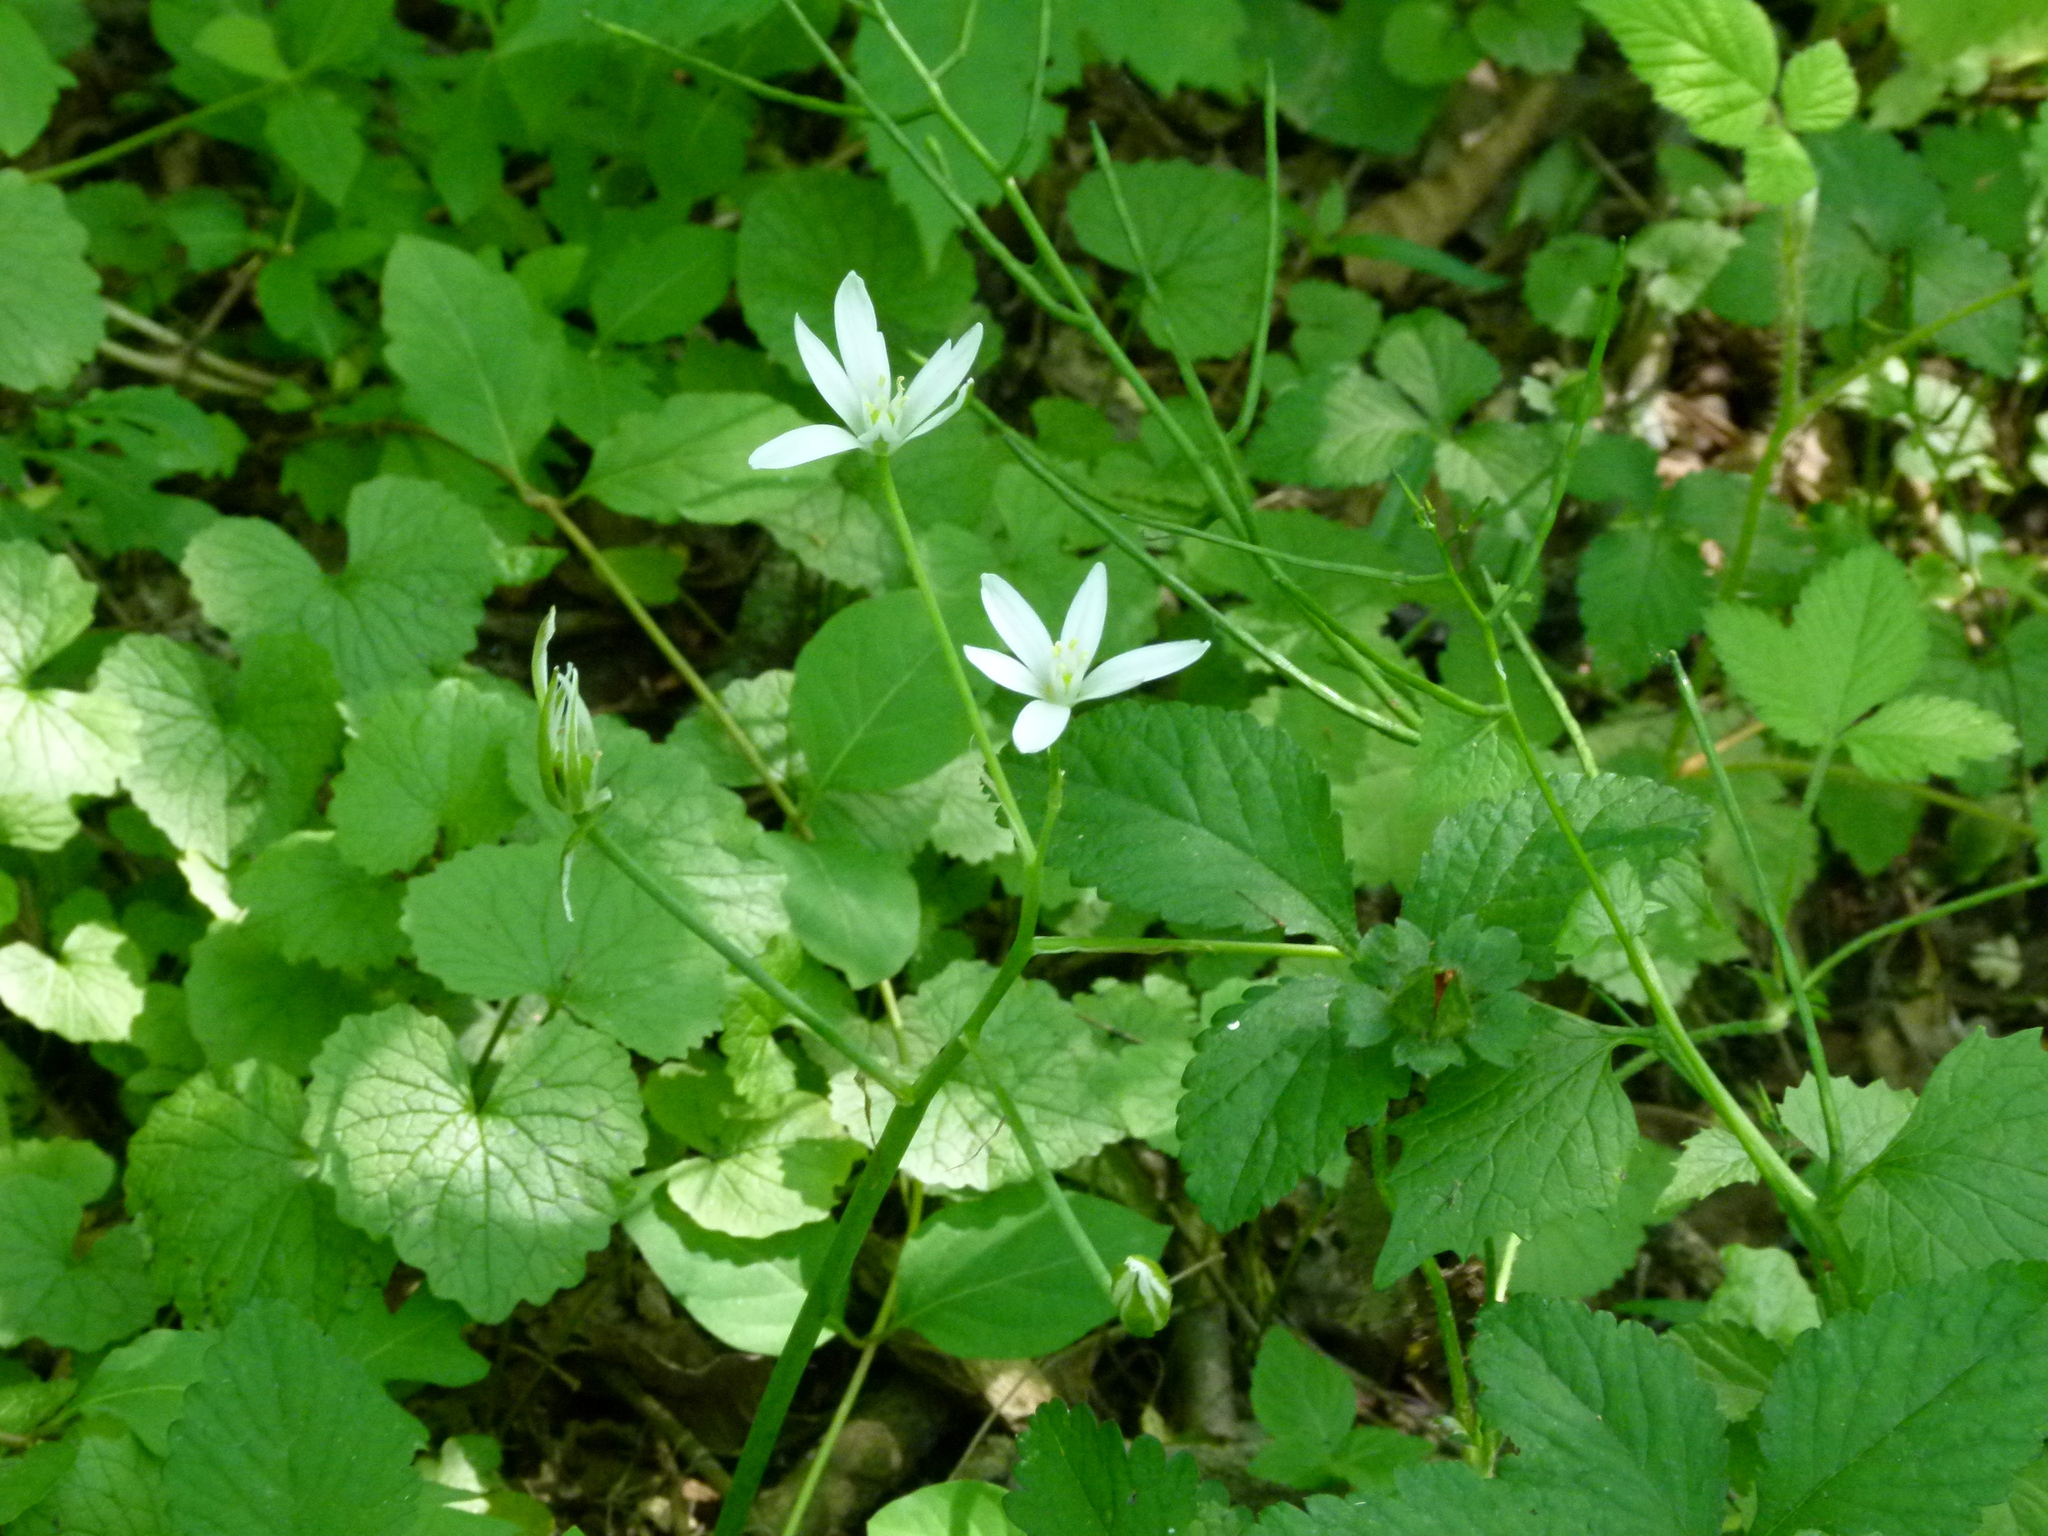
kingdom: Plantae
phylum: Tracheophyta
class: Liliopsida
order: Asparagales
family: Asparagaceae
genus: Ornithogalum
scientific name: Ornithogalum umbellatum
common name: Garden star-of-bethlehem
